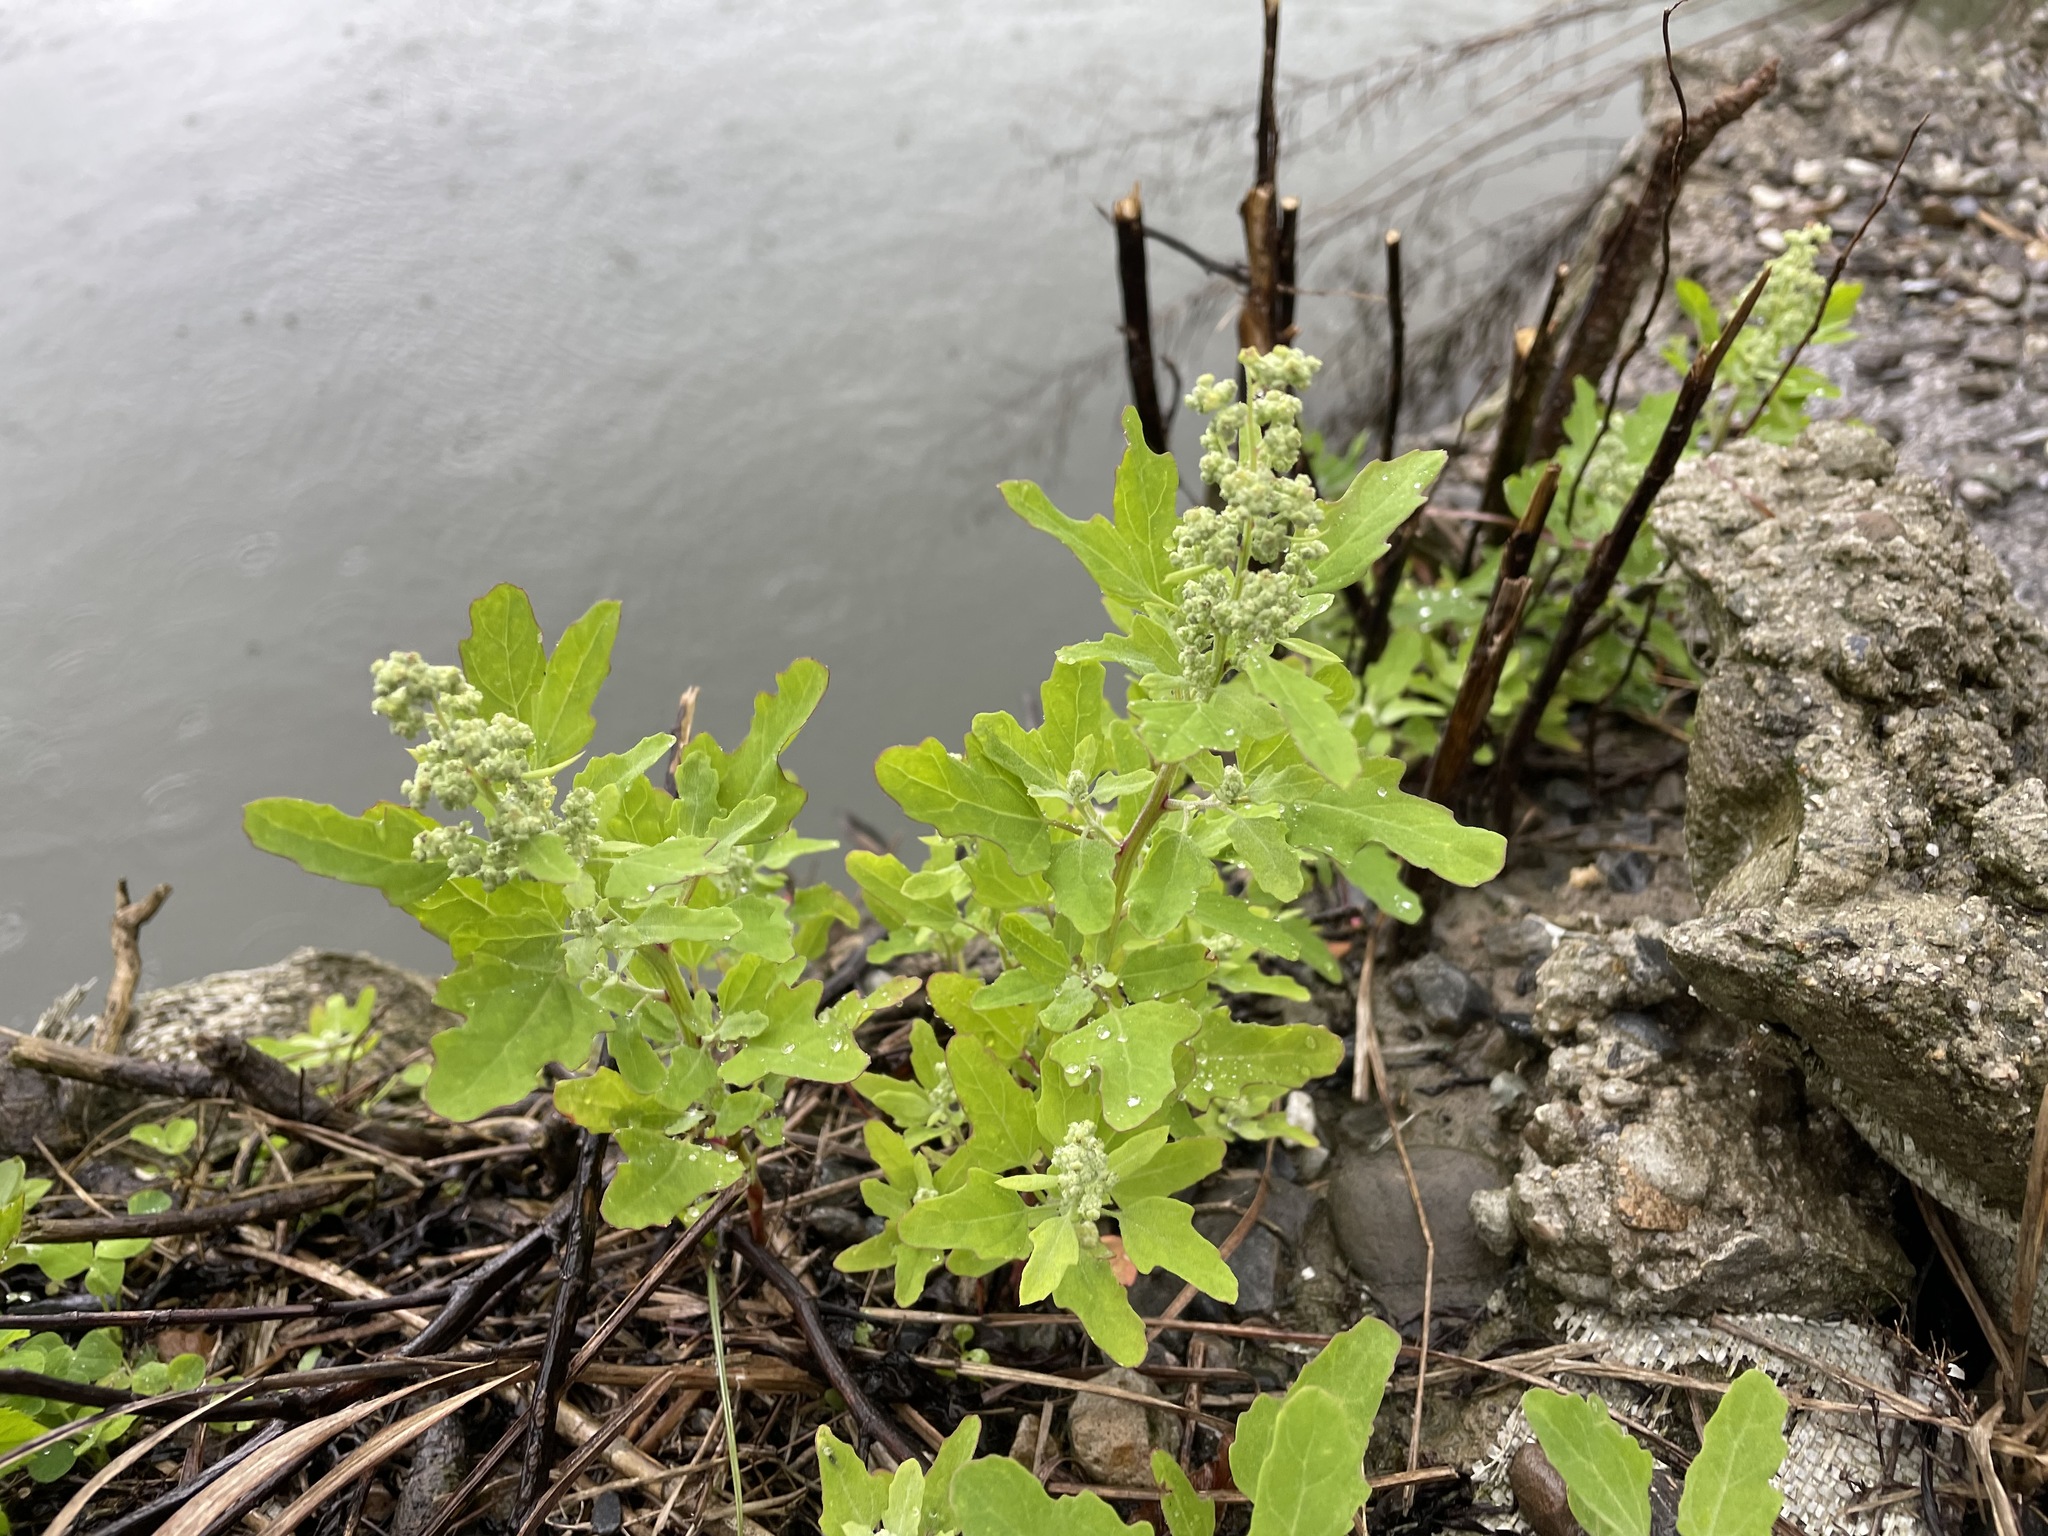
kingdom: Plantae
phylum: Tracheophyta
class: Magnoliopsida
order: Caryophyllales
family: Amaranthaceae
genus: Chenopodium
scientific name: Chenopodium ficifolium
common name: Fig-leaved goosefoot
